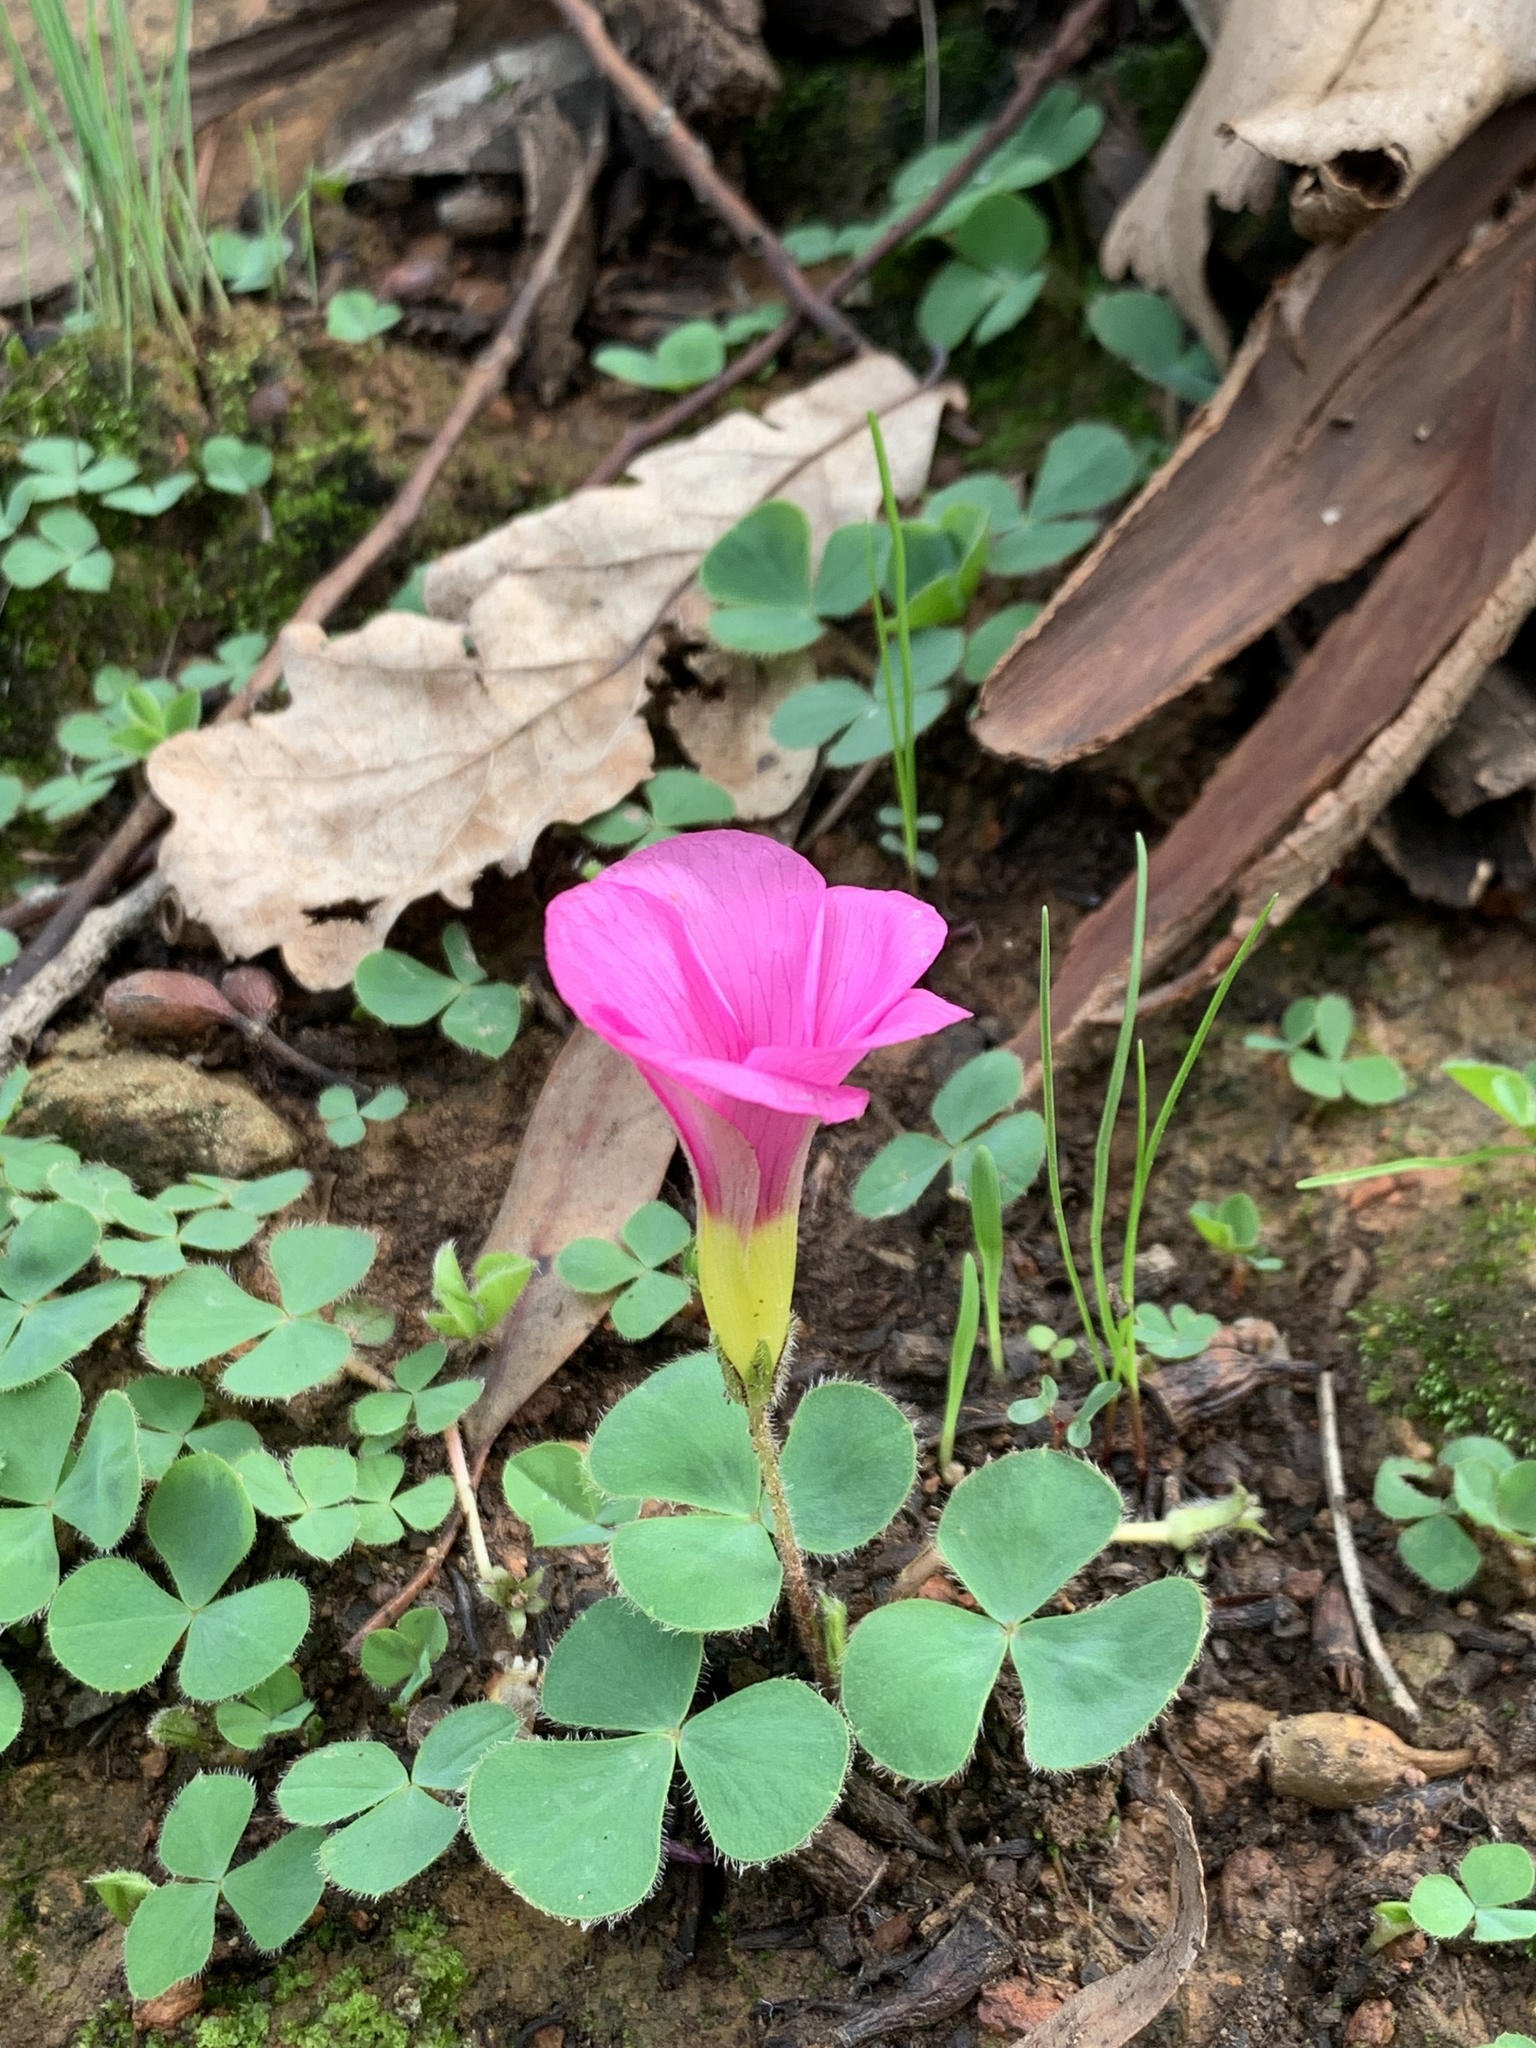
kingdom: Plantae
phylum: Tracheophyta
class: Magnoliopsida
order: Oxalidales
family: Oxalidaceae
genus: Oxalis
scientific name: Oxalis purpurea
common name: Purple woodsorrel
